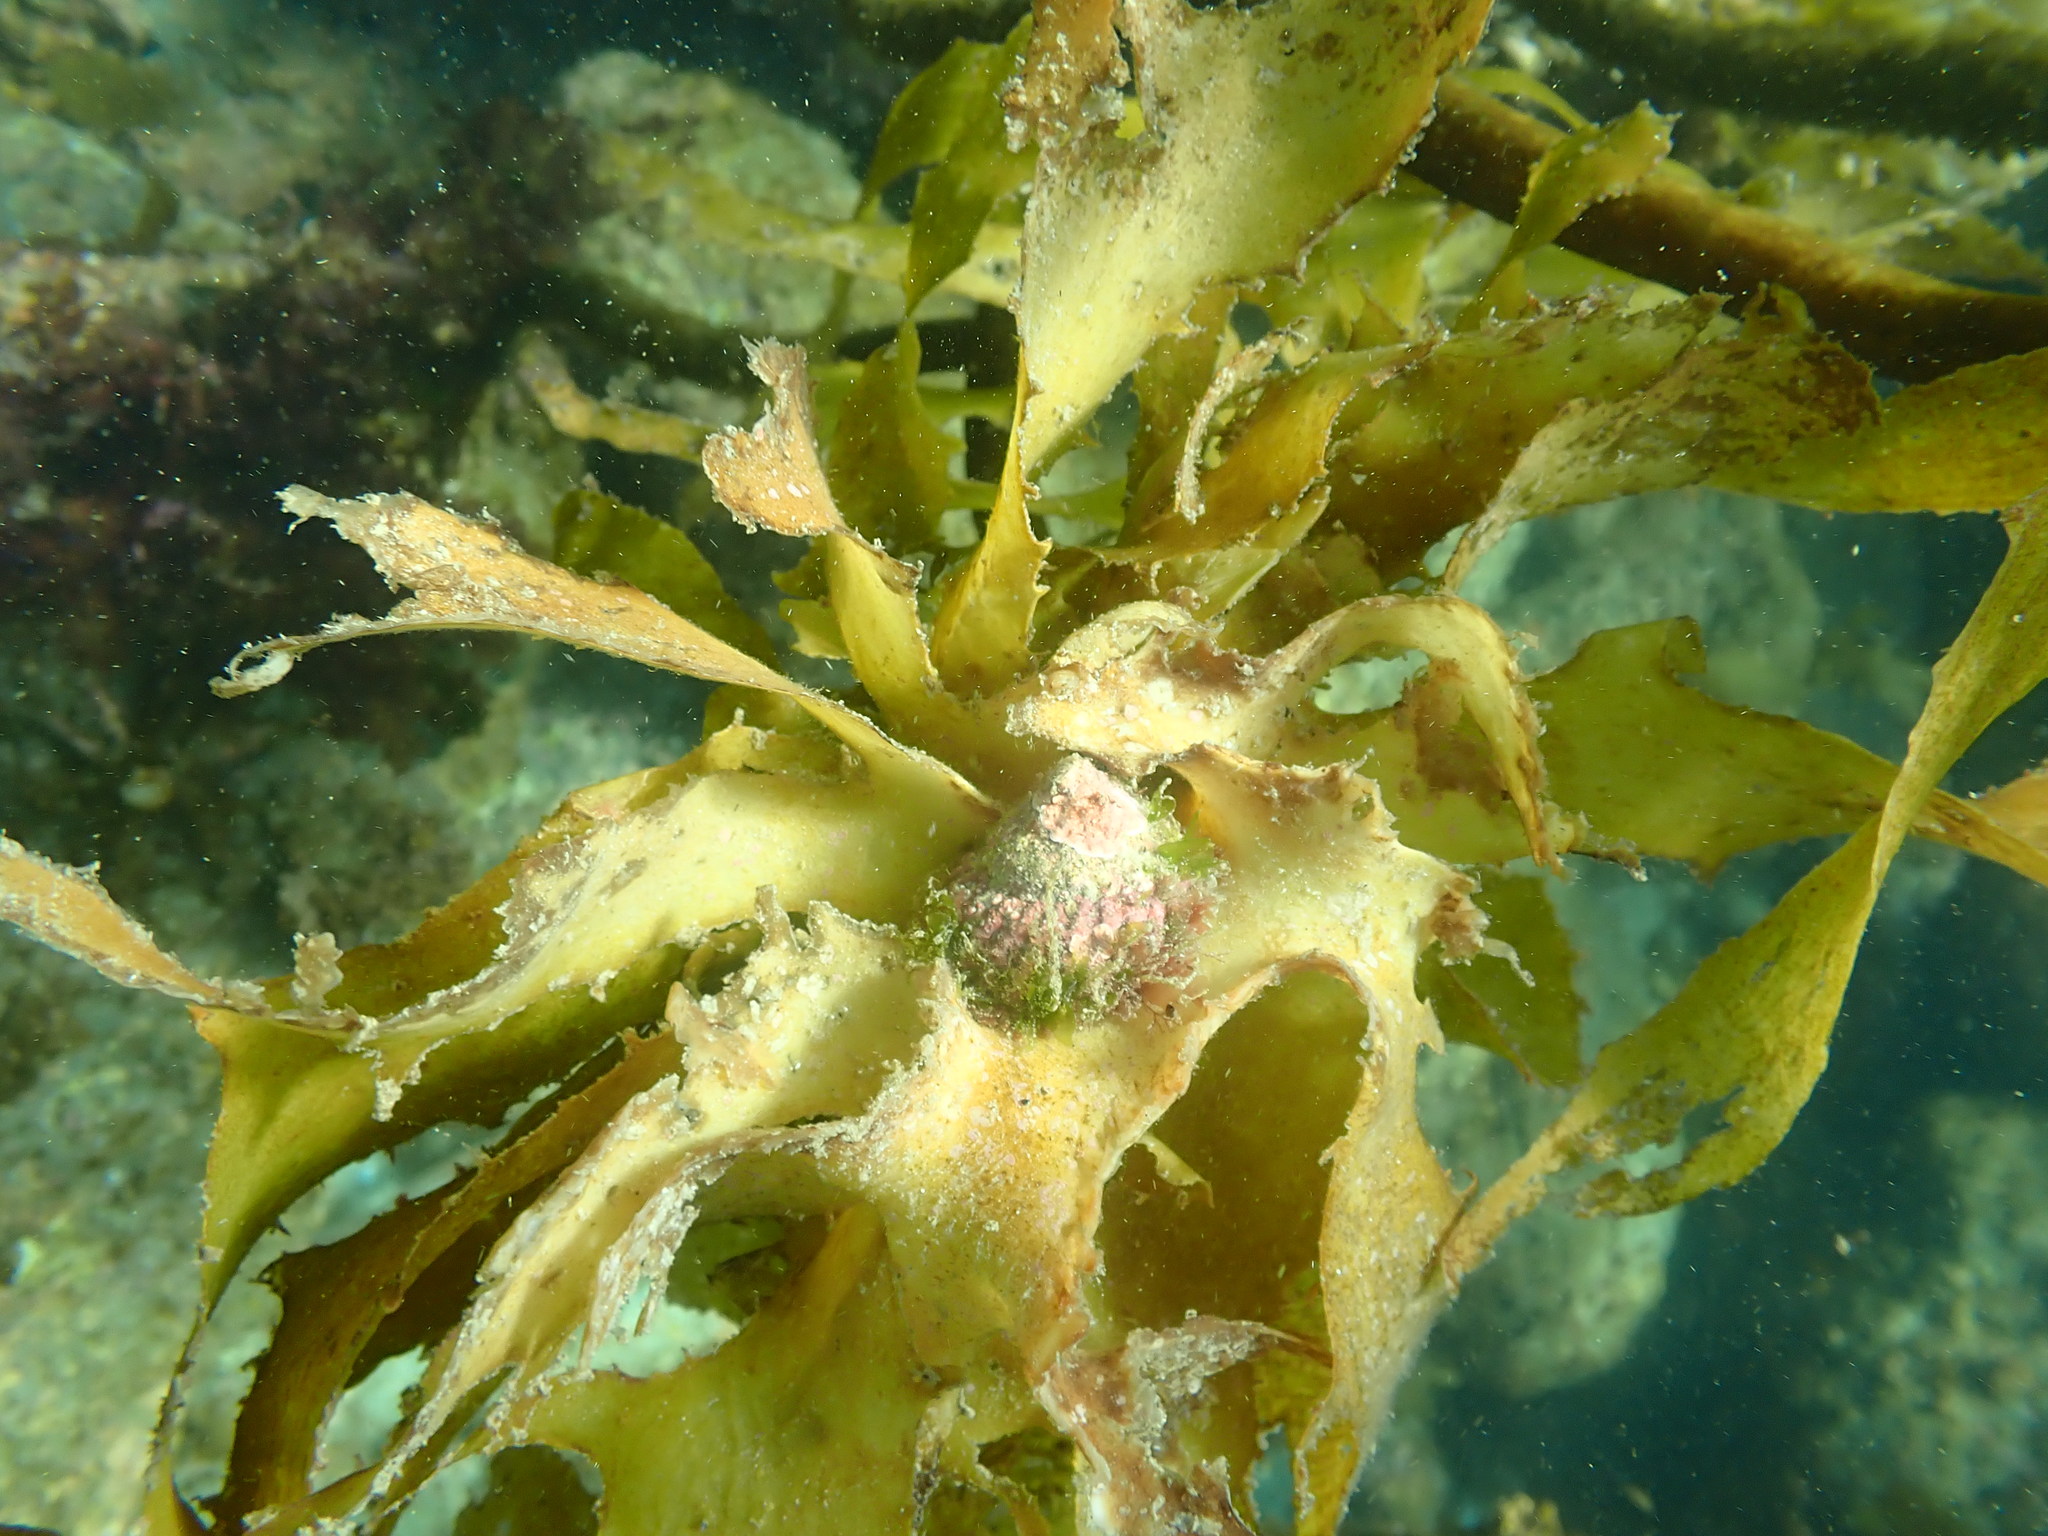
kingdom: Animalia
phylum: Mollusca
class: Gastropoda
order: Trochida
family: Turbinidae
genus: Cookia
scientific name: Cookia sulcata
